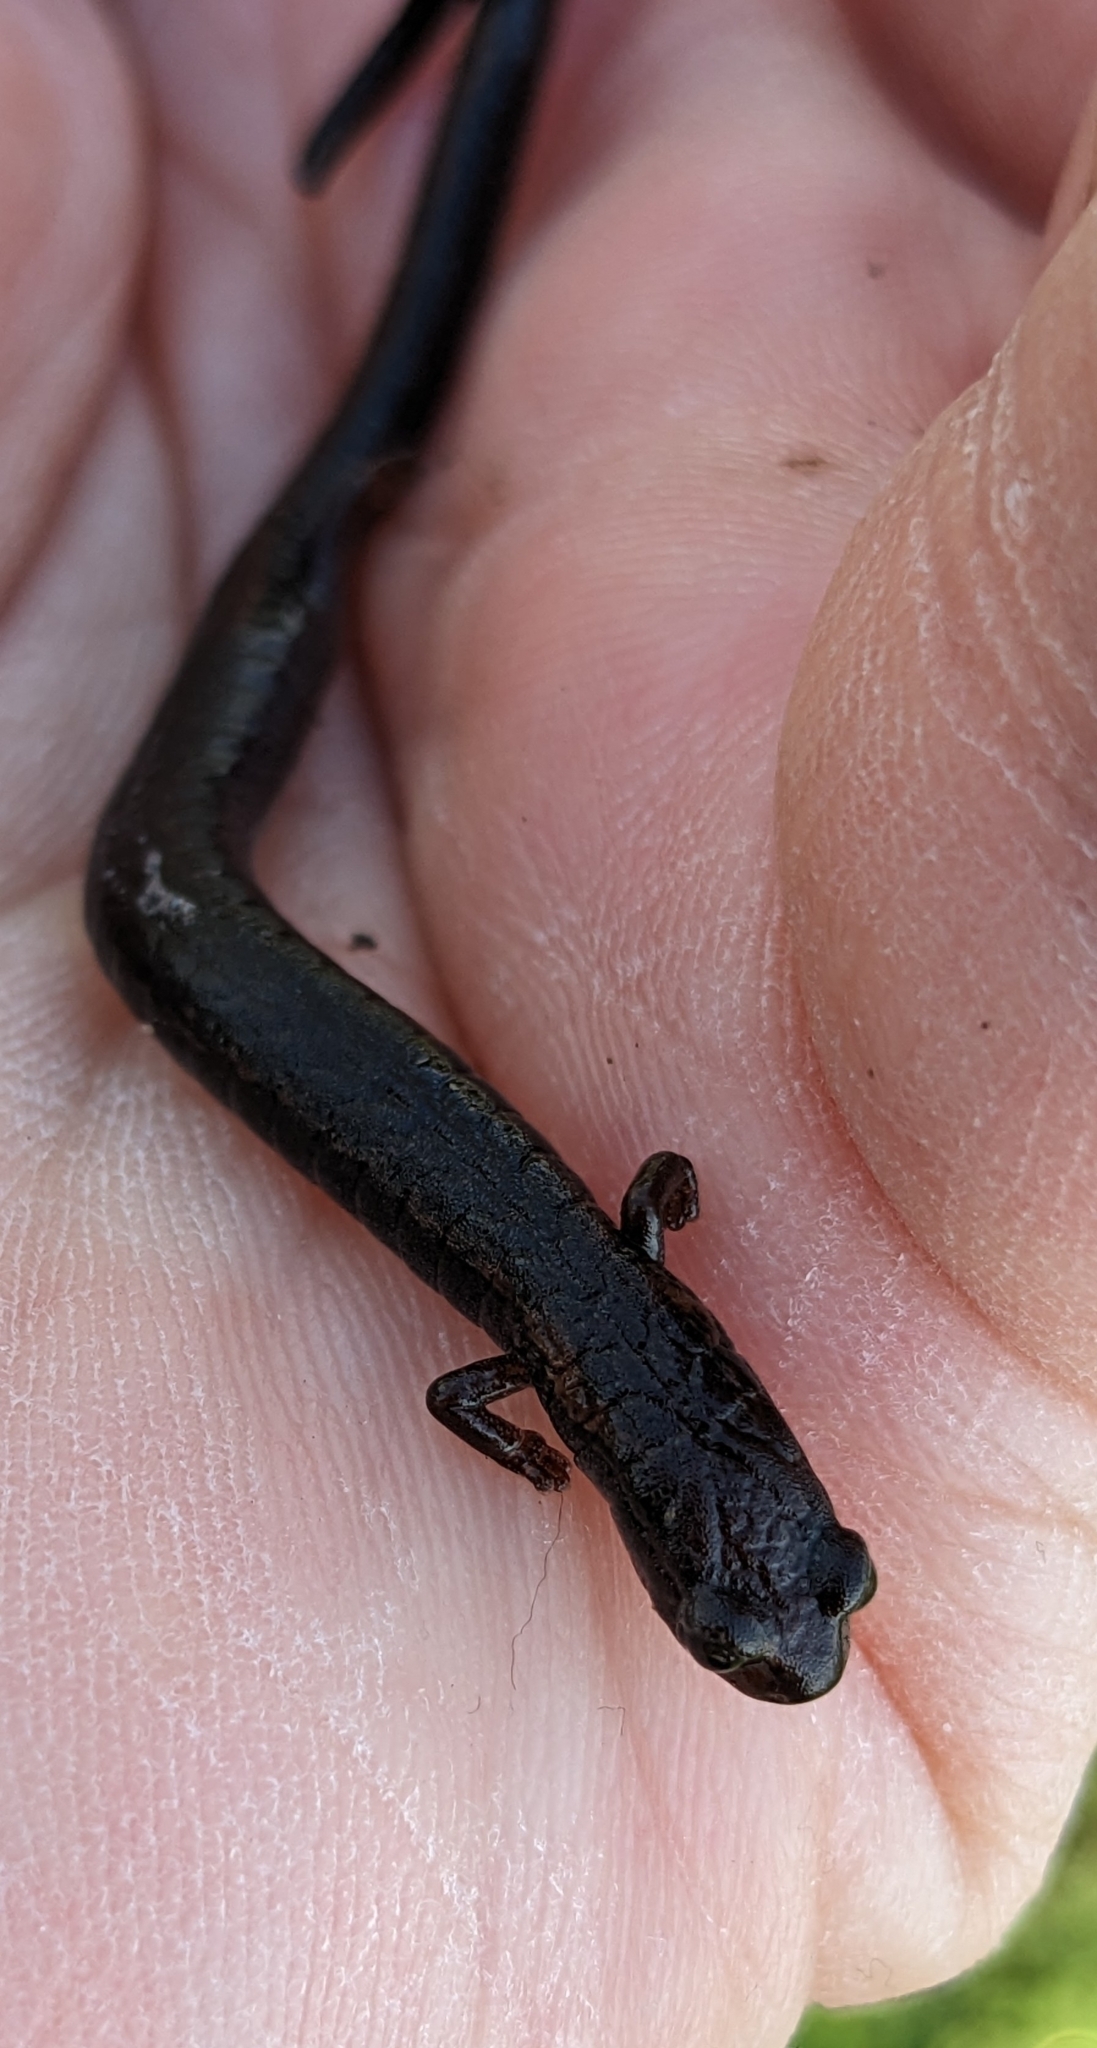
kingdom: Animalia
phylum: Chordata
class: Amphibia
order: Caudata
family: Plethodontidae
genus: Batrachoseps
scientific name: Batrachoseps attenuatus
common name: California slender salamander
